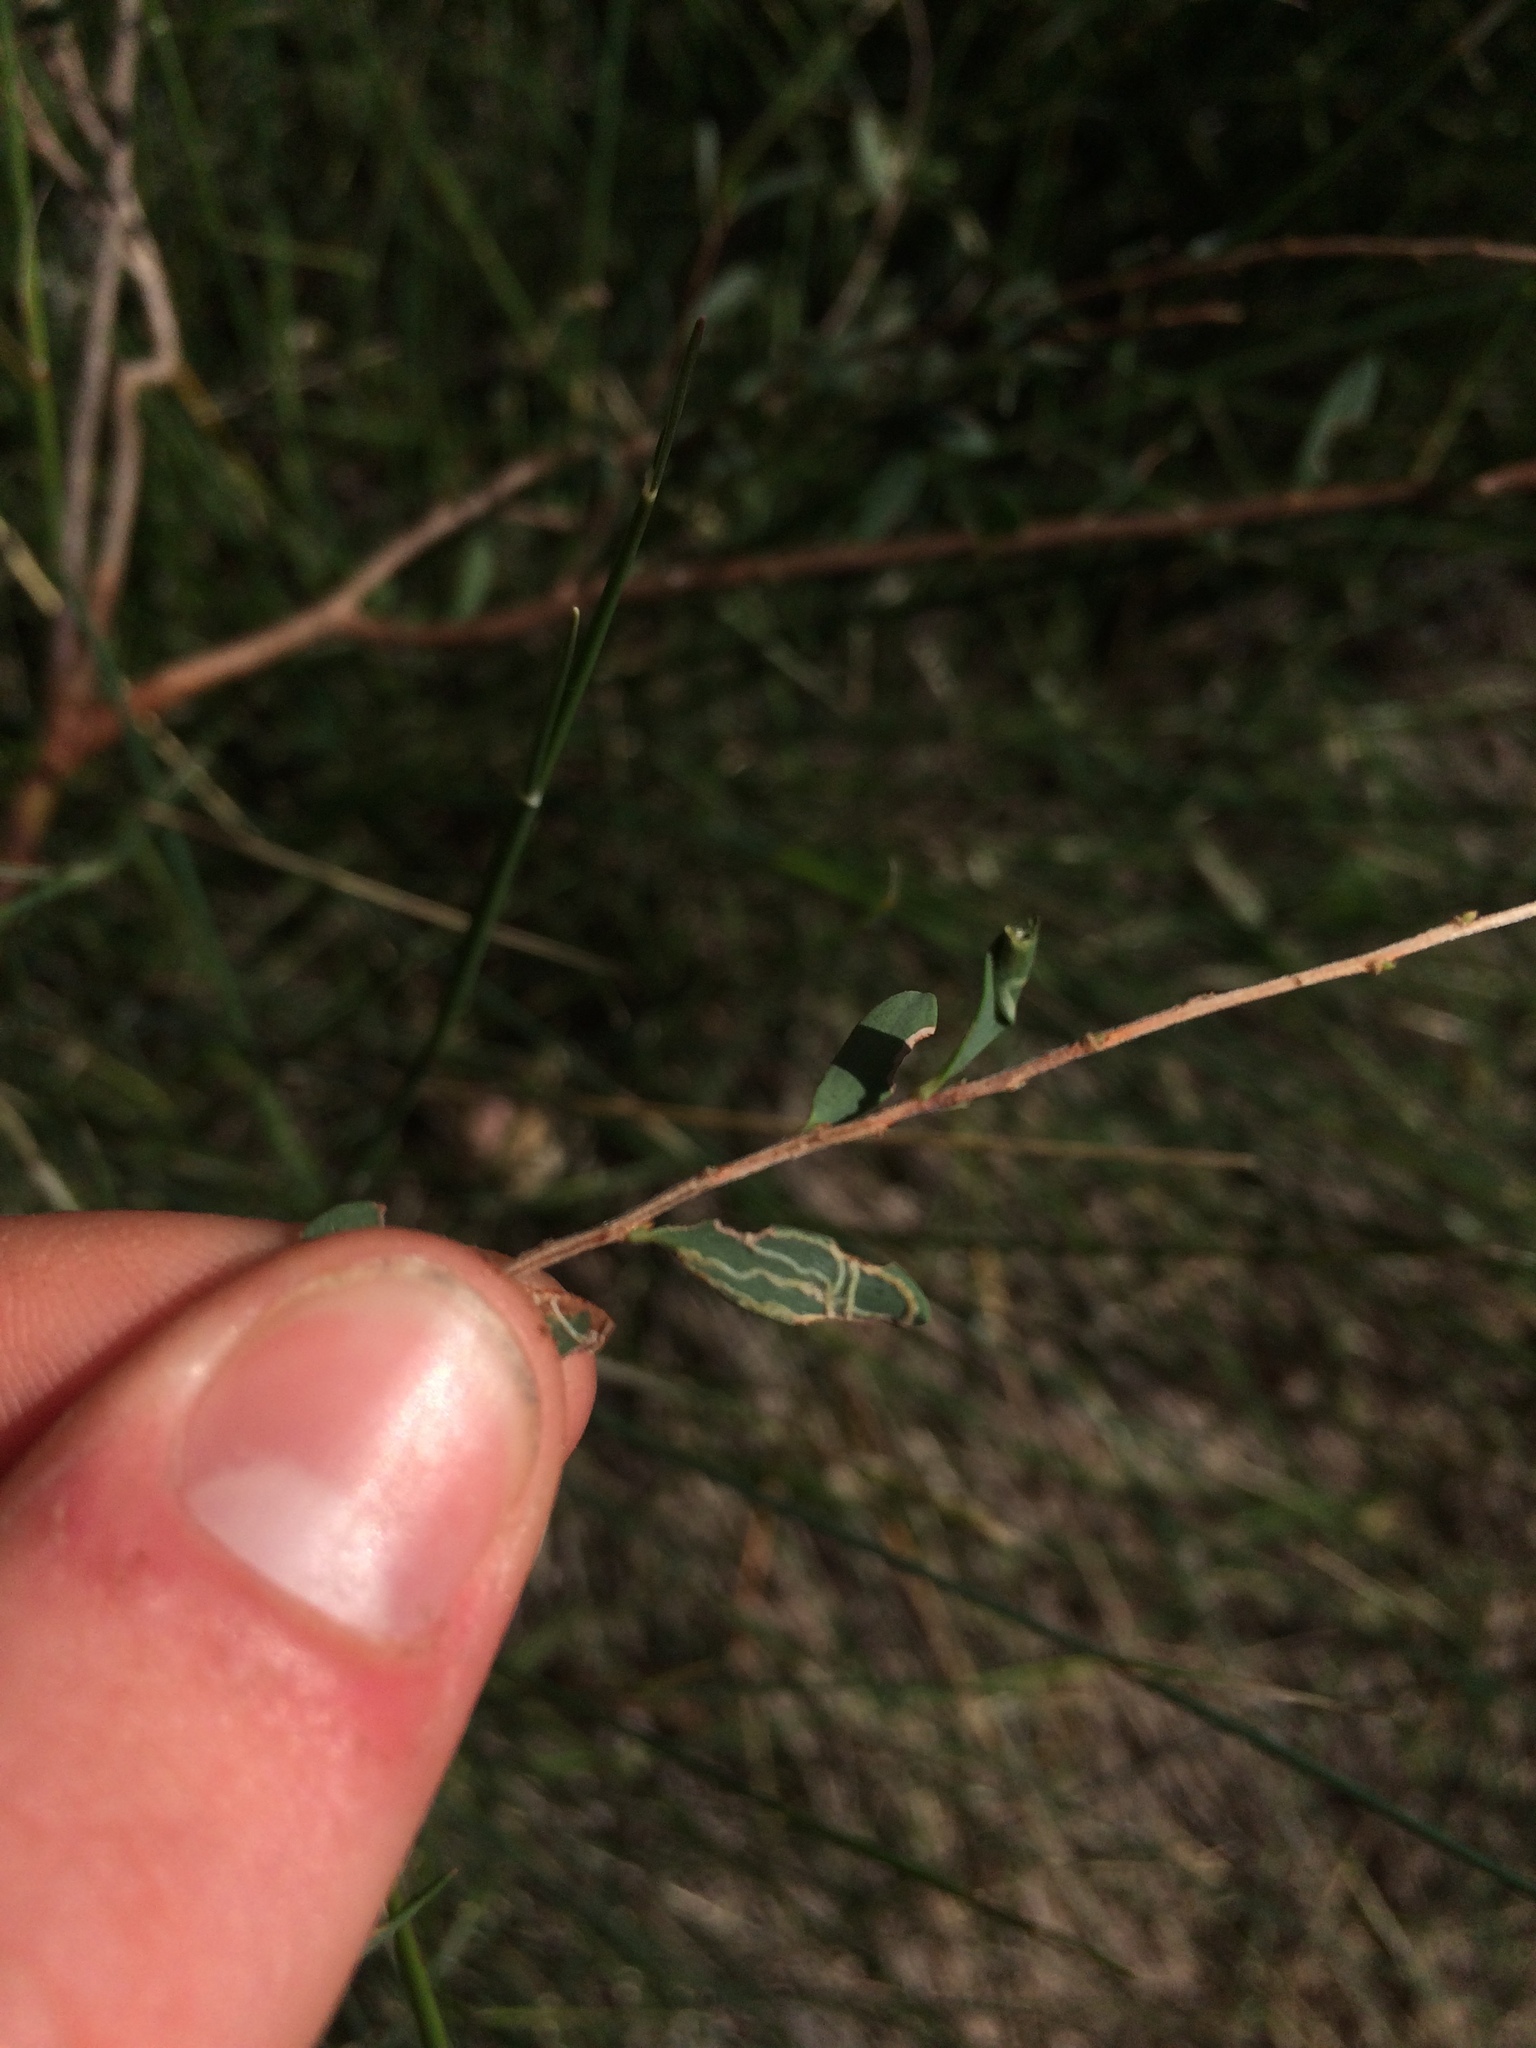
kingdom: Animalia
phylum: Arthropoda
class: Insecta
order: Lepidoptera
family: Gracillariidae
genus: Aristaea
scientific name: Aristaea thalassias
